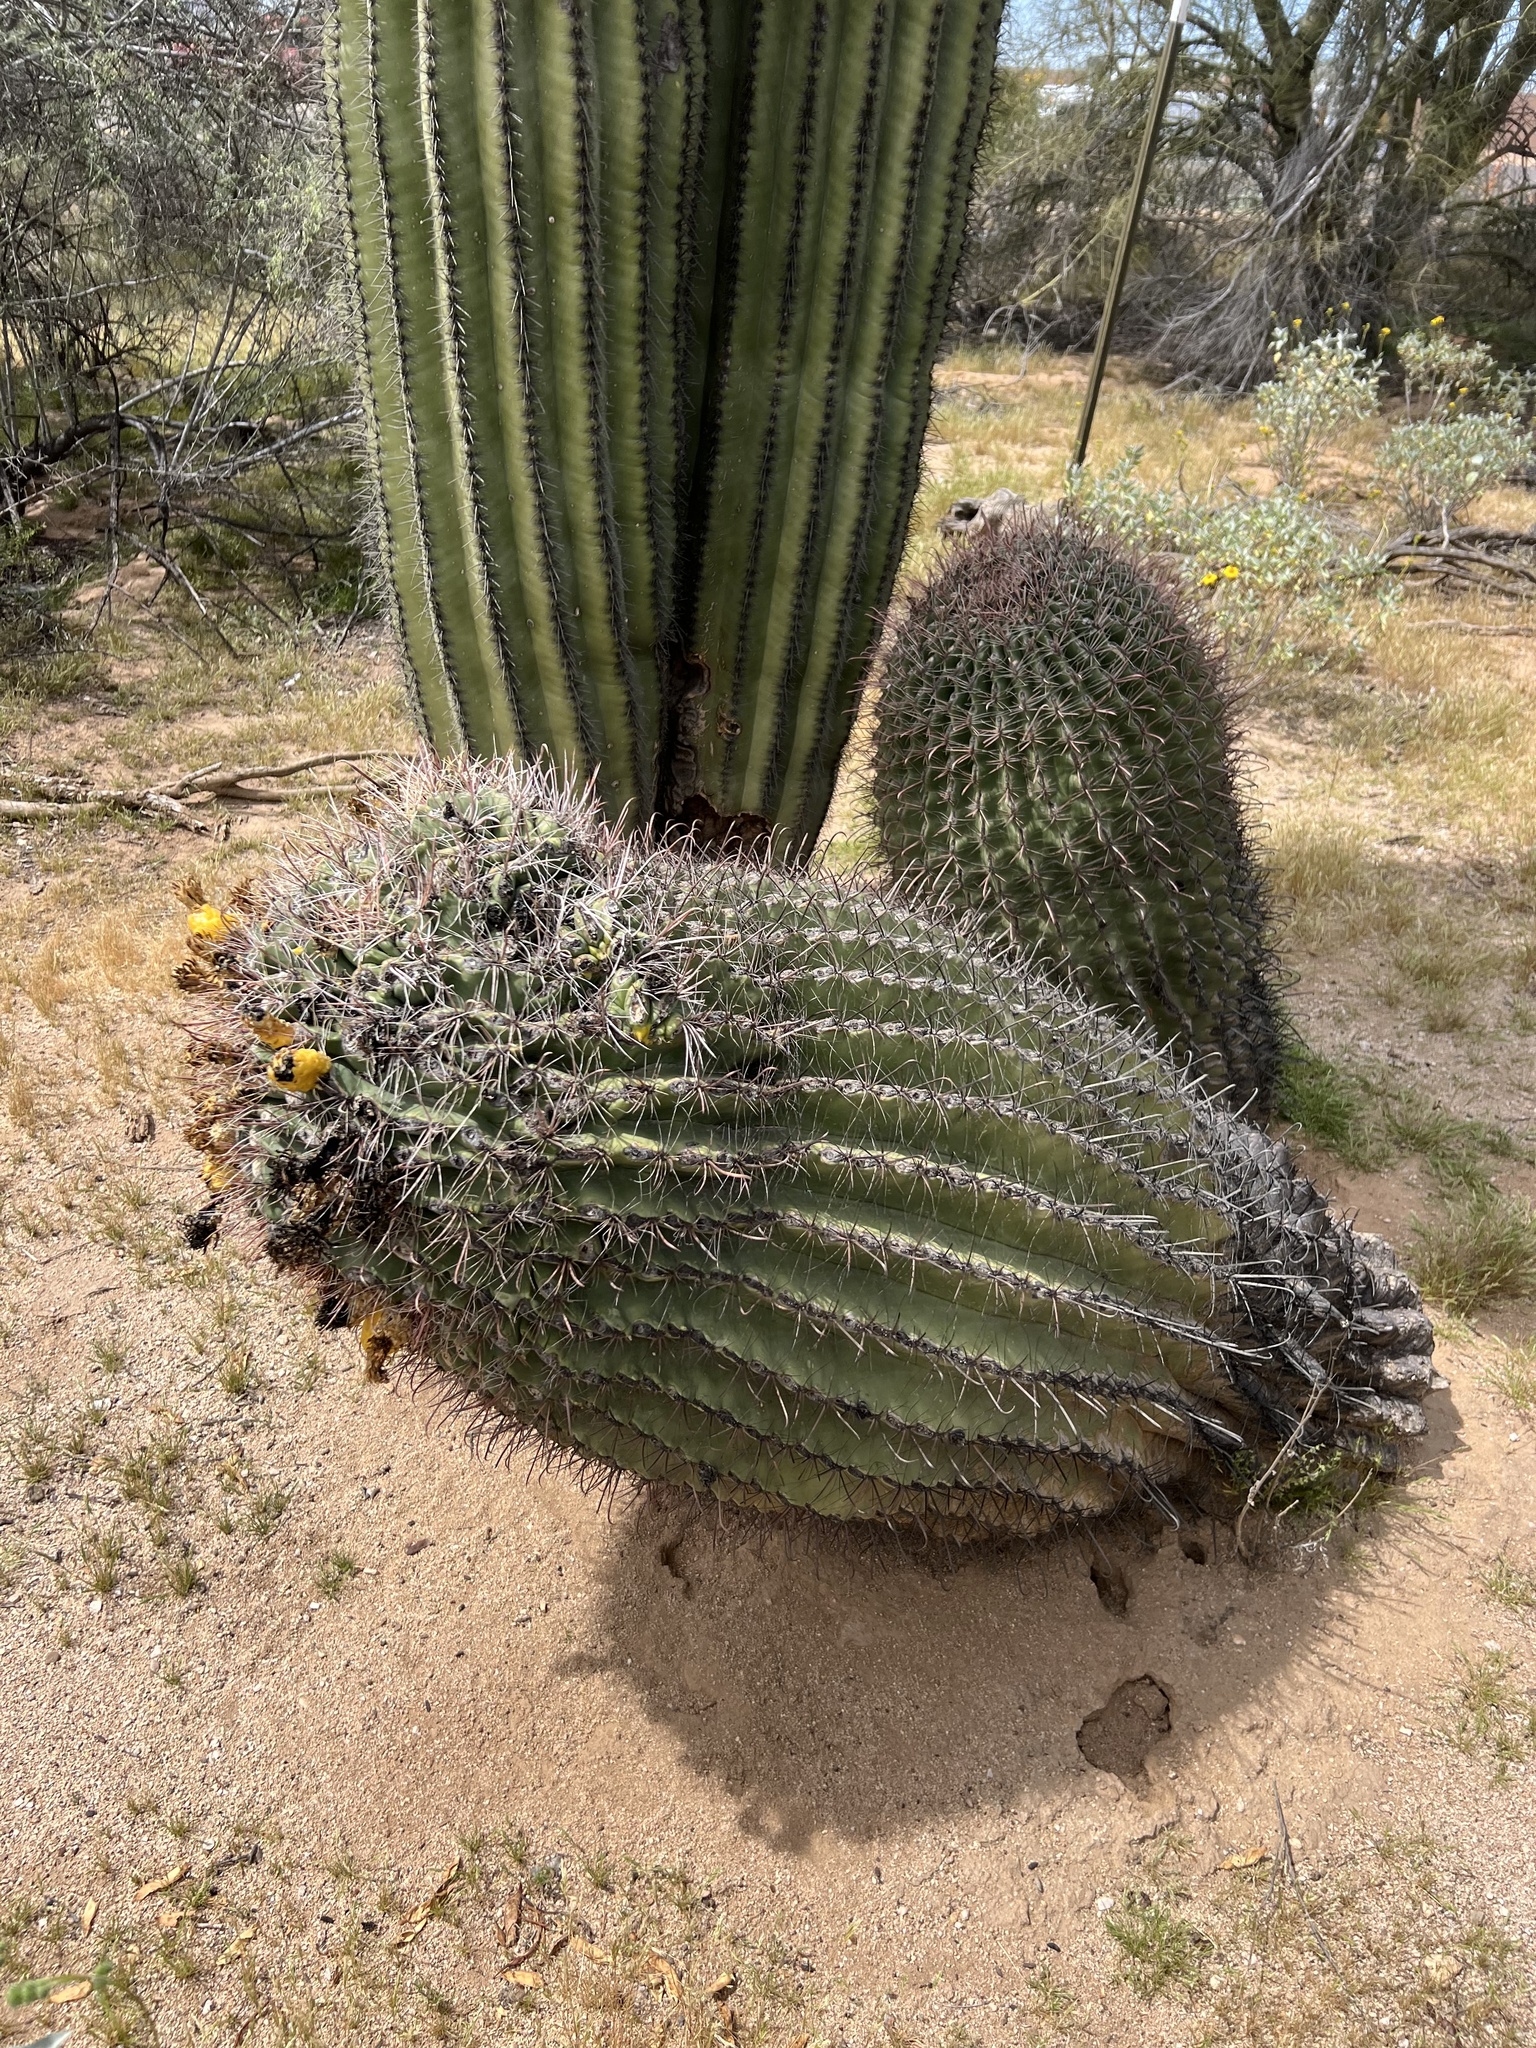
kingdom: Plantae
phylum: Tracheophyta
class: Magnoliopsida
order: Caryophyllales
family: Cactaceae
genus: Ferocactus
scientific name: Ferocactus wislizeni
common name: Candy barrel cactus
